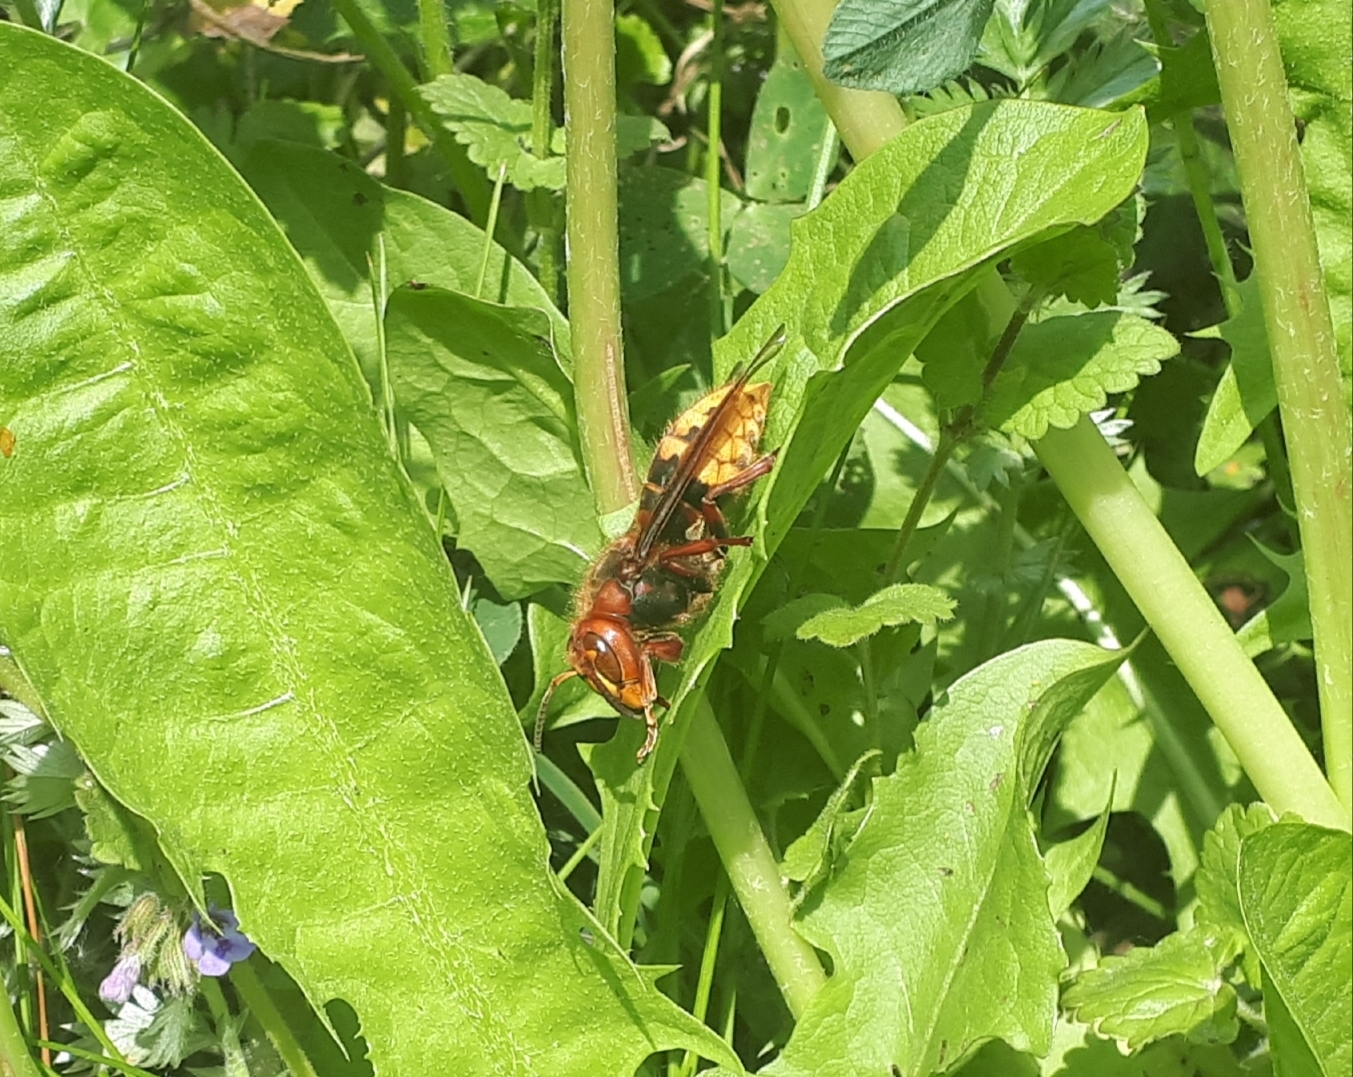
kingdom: Animalia
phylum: Arthropoda
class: Insecta
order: Hymenoptera
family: Vespidae
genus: Vespa
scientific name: Vespa crabro
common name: Hornet
